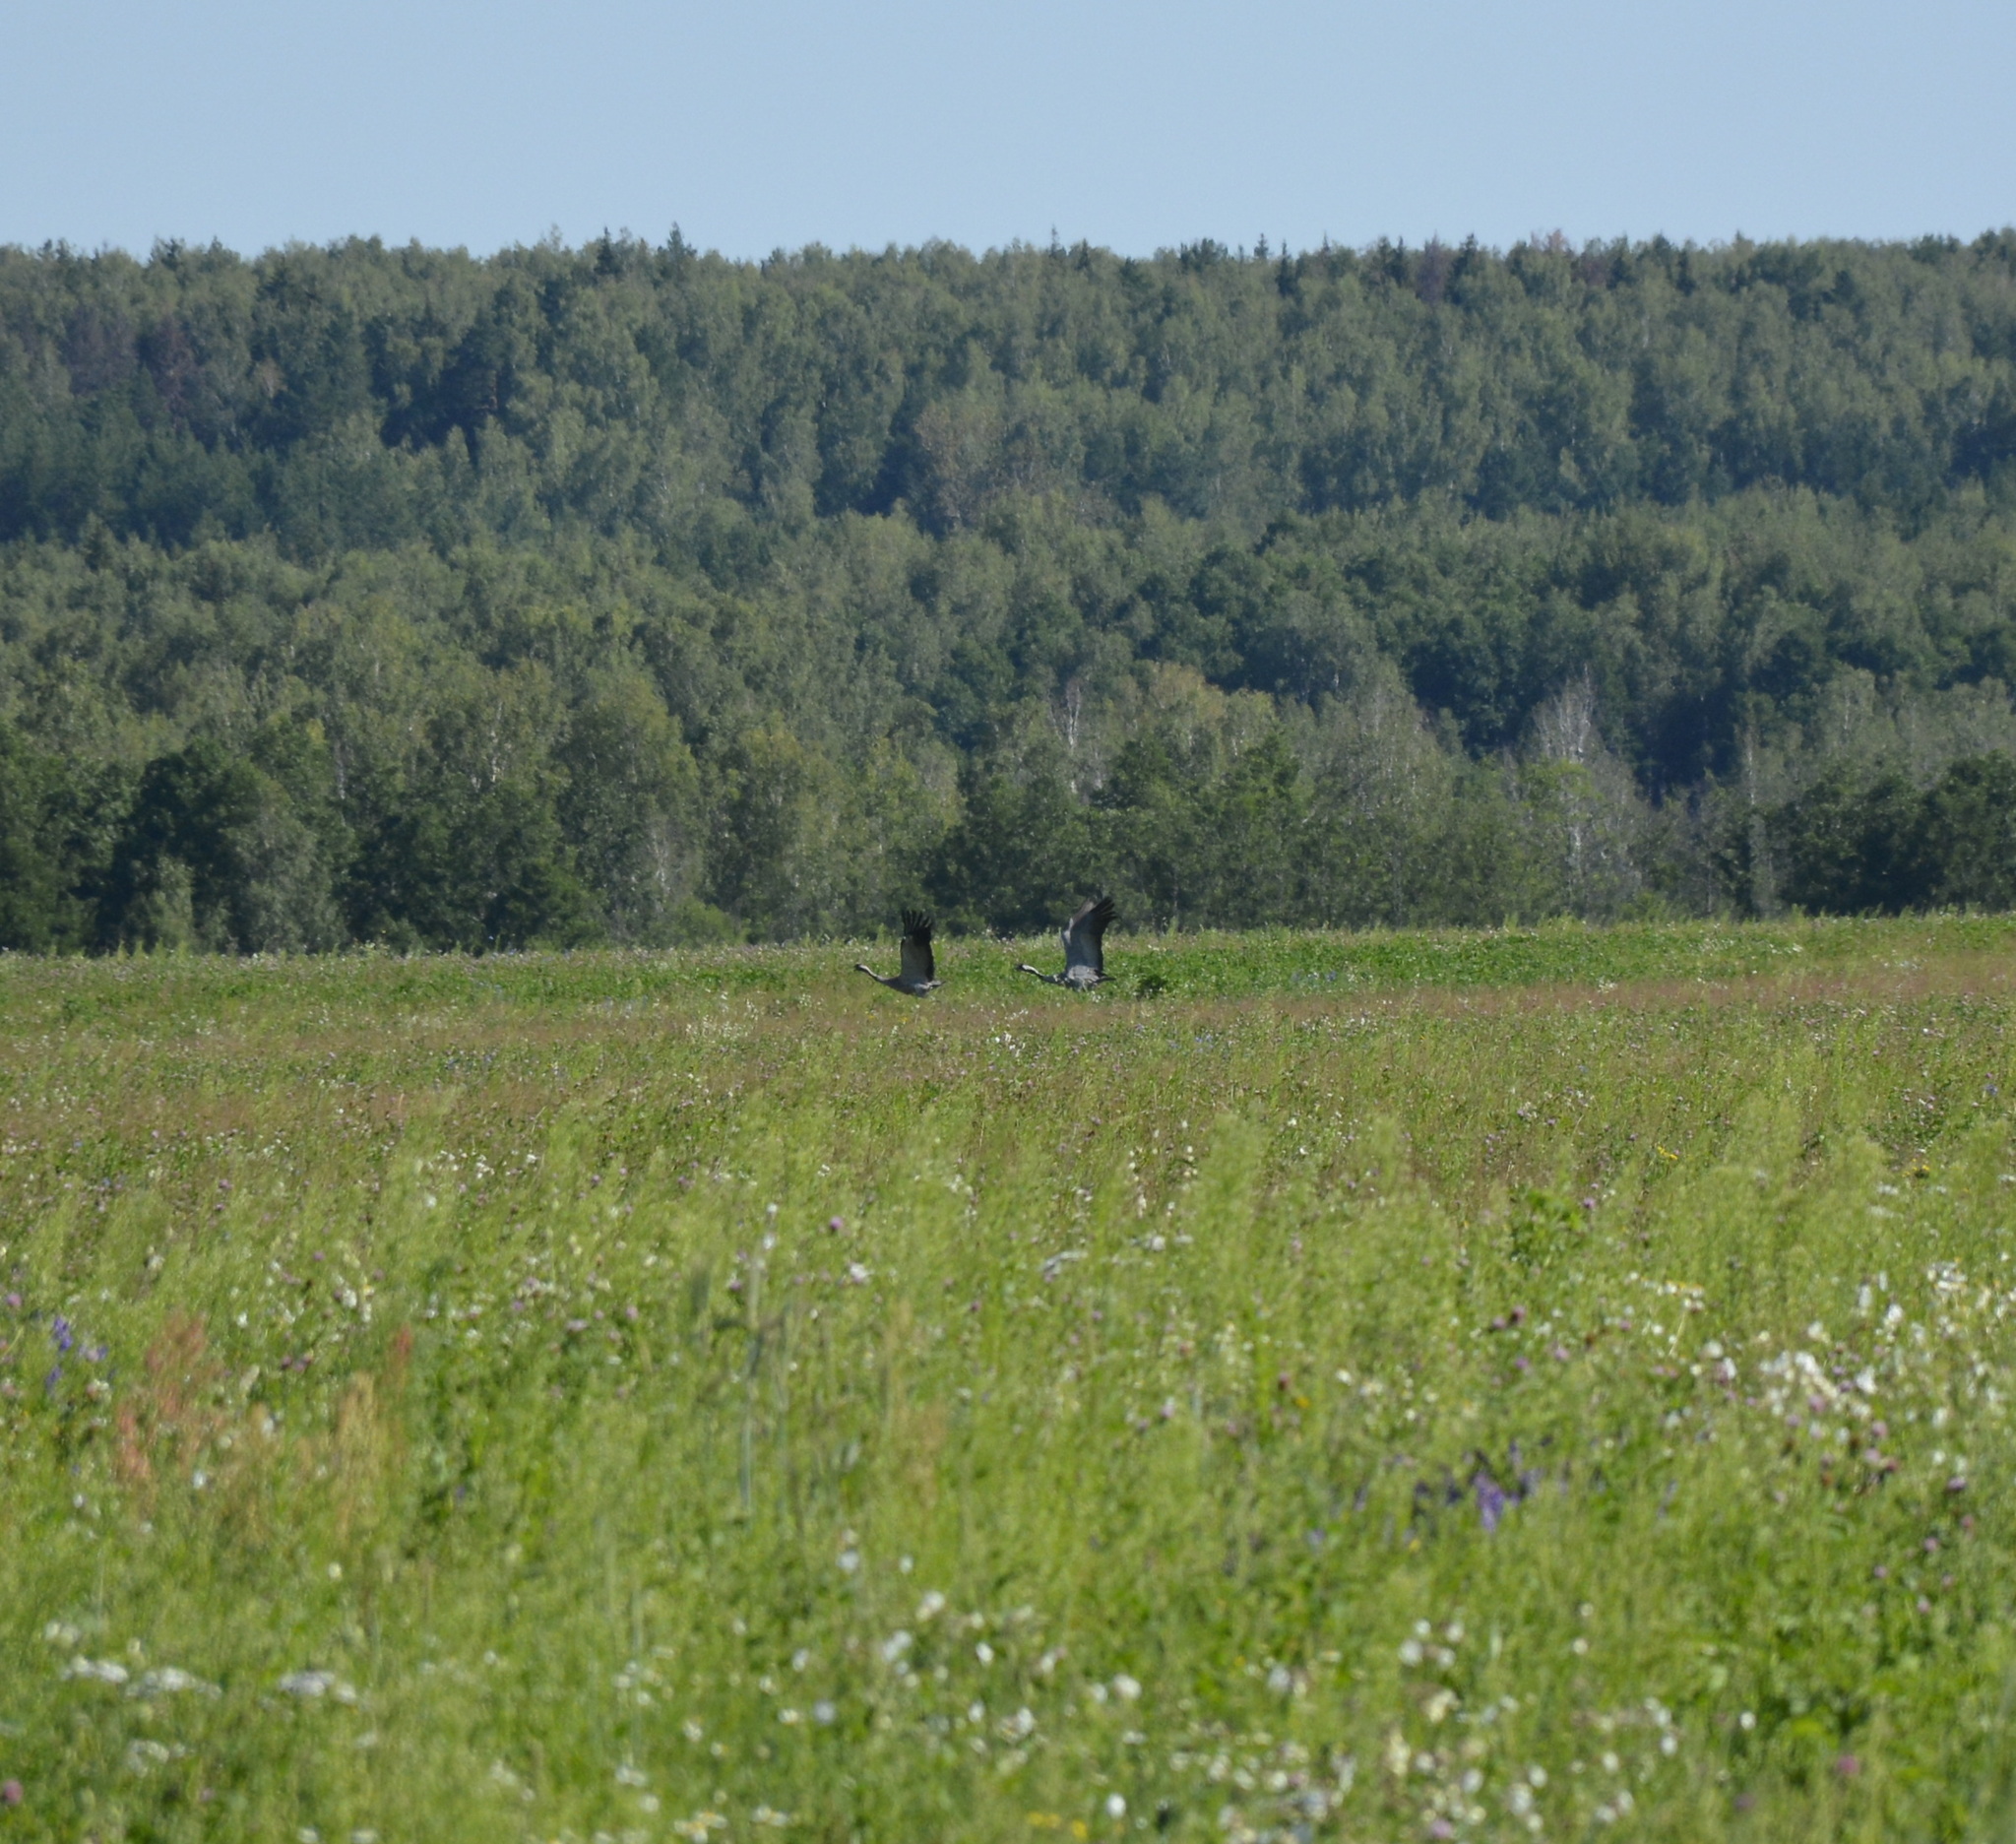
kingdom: Animalia
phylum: Chordata
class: Aves
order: Gruiformes
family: Gruidae
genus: Grus
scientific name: Grus grus
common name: Common crane
